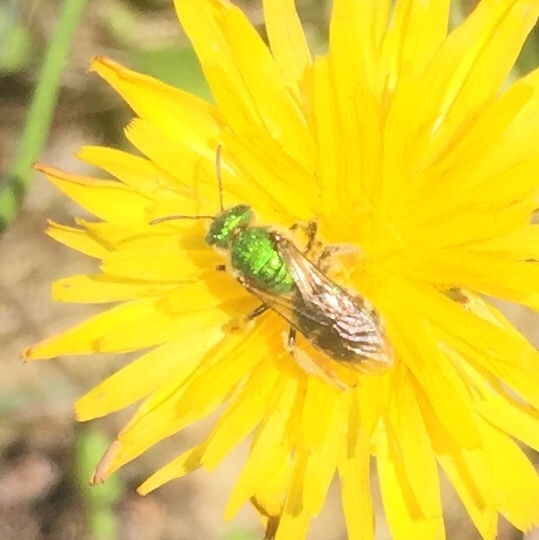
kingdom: Animalia
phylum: Arthropoda
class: Insecta
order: Hymenoptera
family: Halictidae
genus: Agapostemon
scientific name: Agapostemon virescens
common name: Bicolored striped sweat bee
